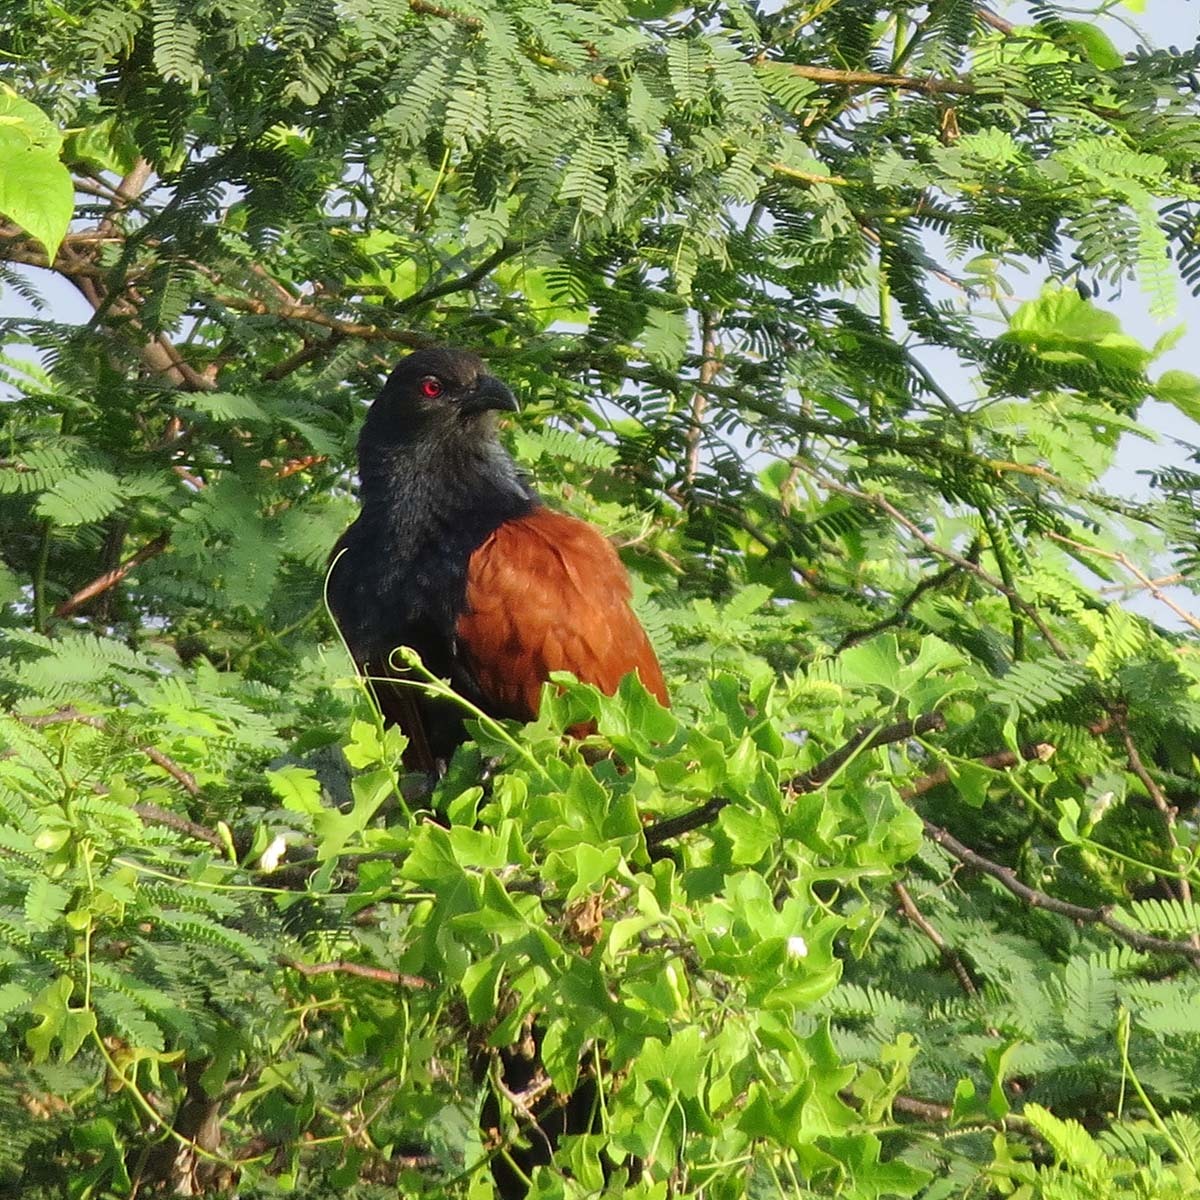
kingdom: Animalia
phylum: Chordata
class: Aves
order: Cuculiformes
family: Cuculidae
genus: Centropus
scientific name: Centropus sinensis
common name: Greater coucal
